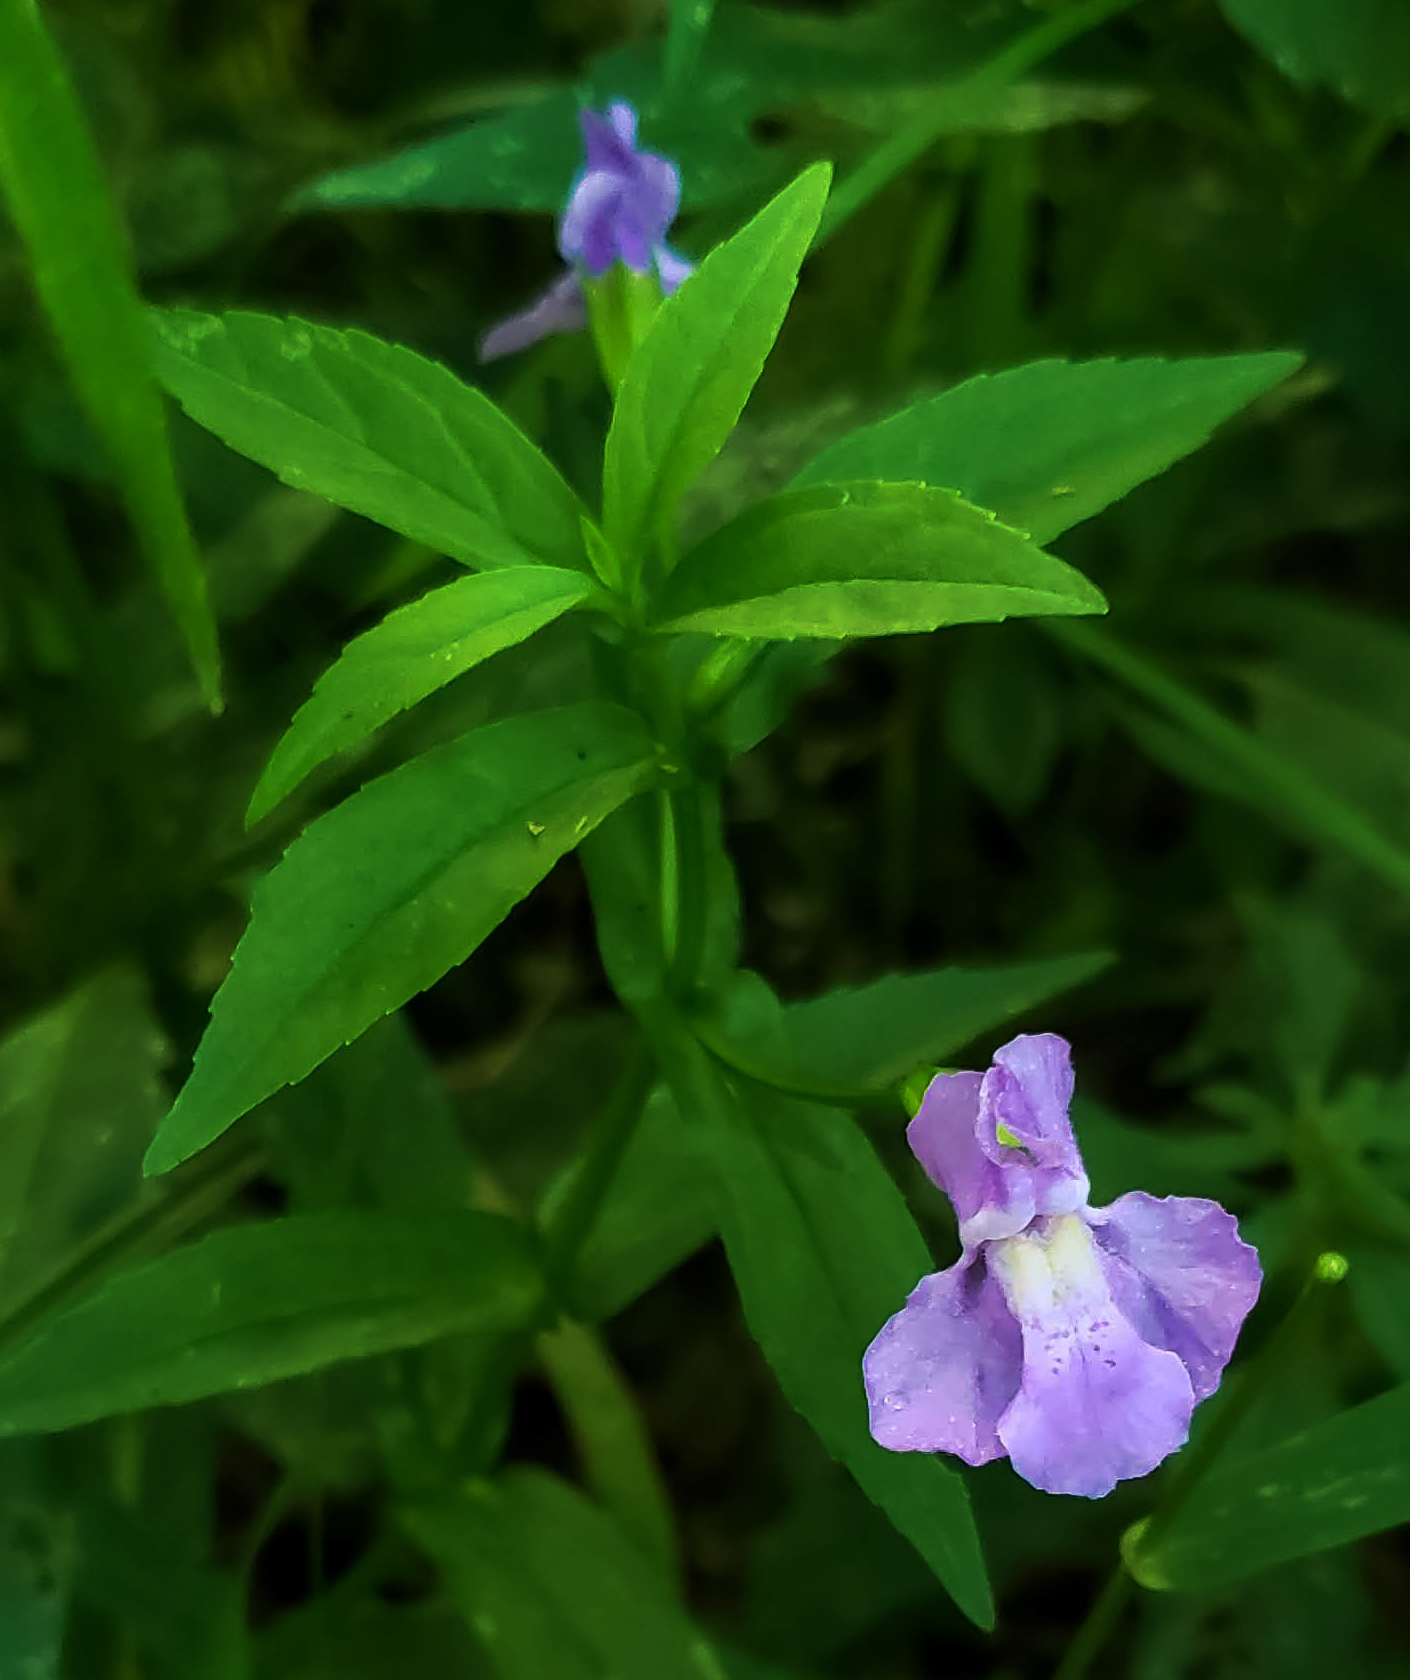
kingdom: Plantae
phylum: Tracheophyta
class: Magnoliopsida
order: Lamiales
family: Phrymaceae
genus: Mimulus
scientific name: Mimulus ringens
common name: Allegheny monkeyflower
